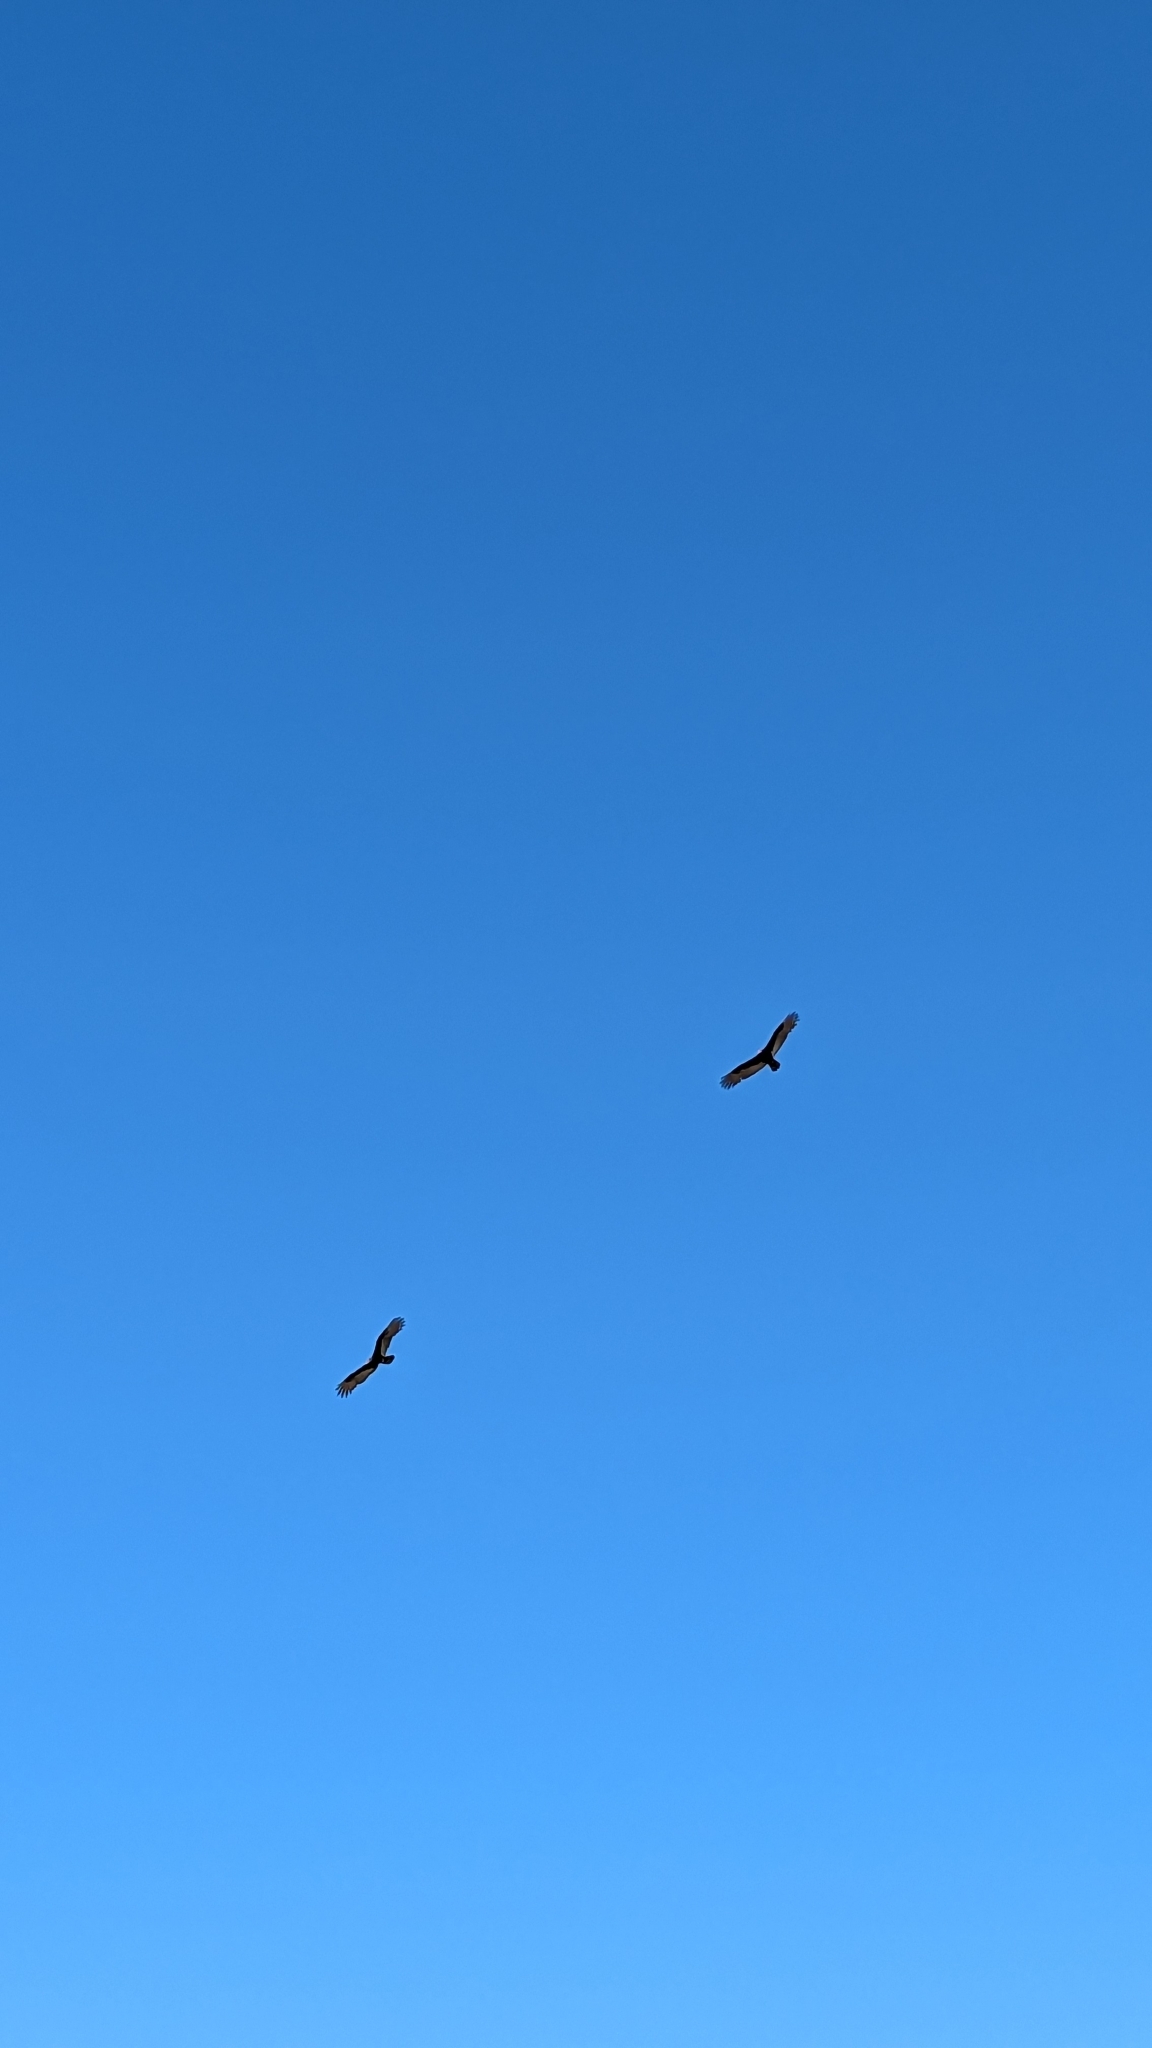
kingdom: Animalia
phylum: Chordata
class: Aves
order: Accipitriformes
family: Cathartidae
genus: Cathartes
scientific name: Cathartes aura
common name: Turkey vulture
